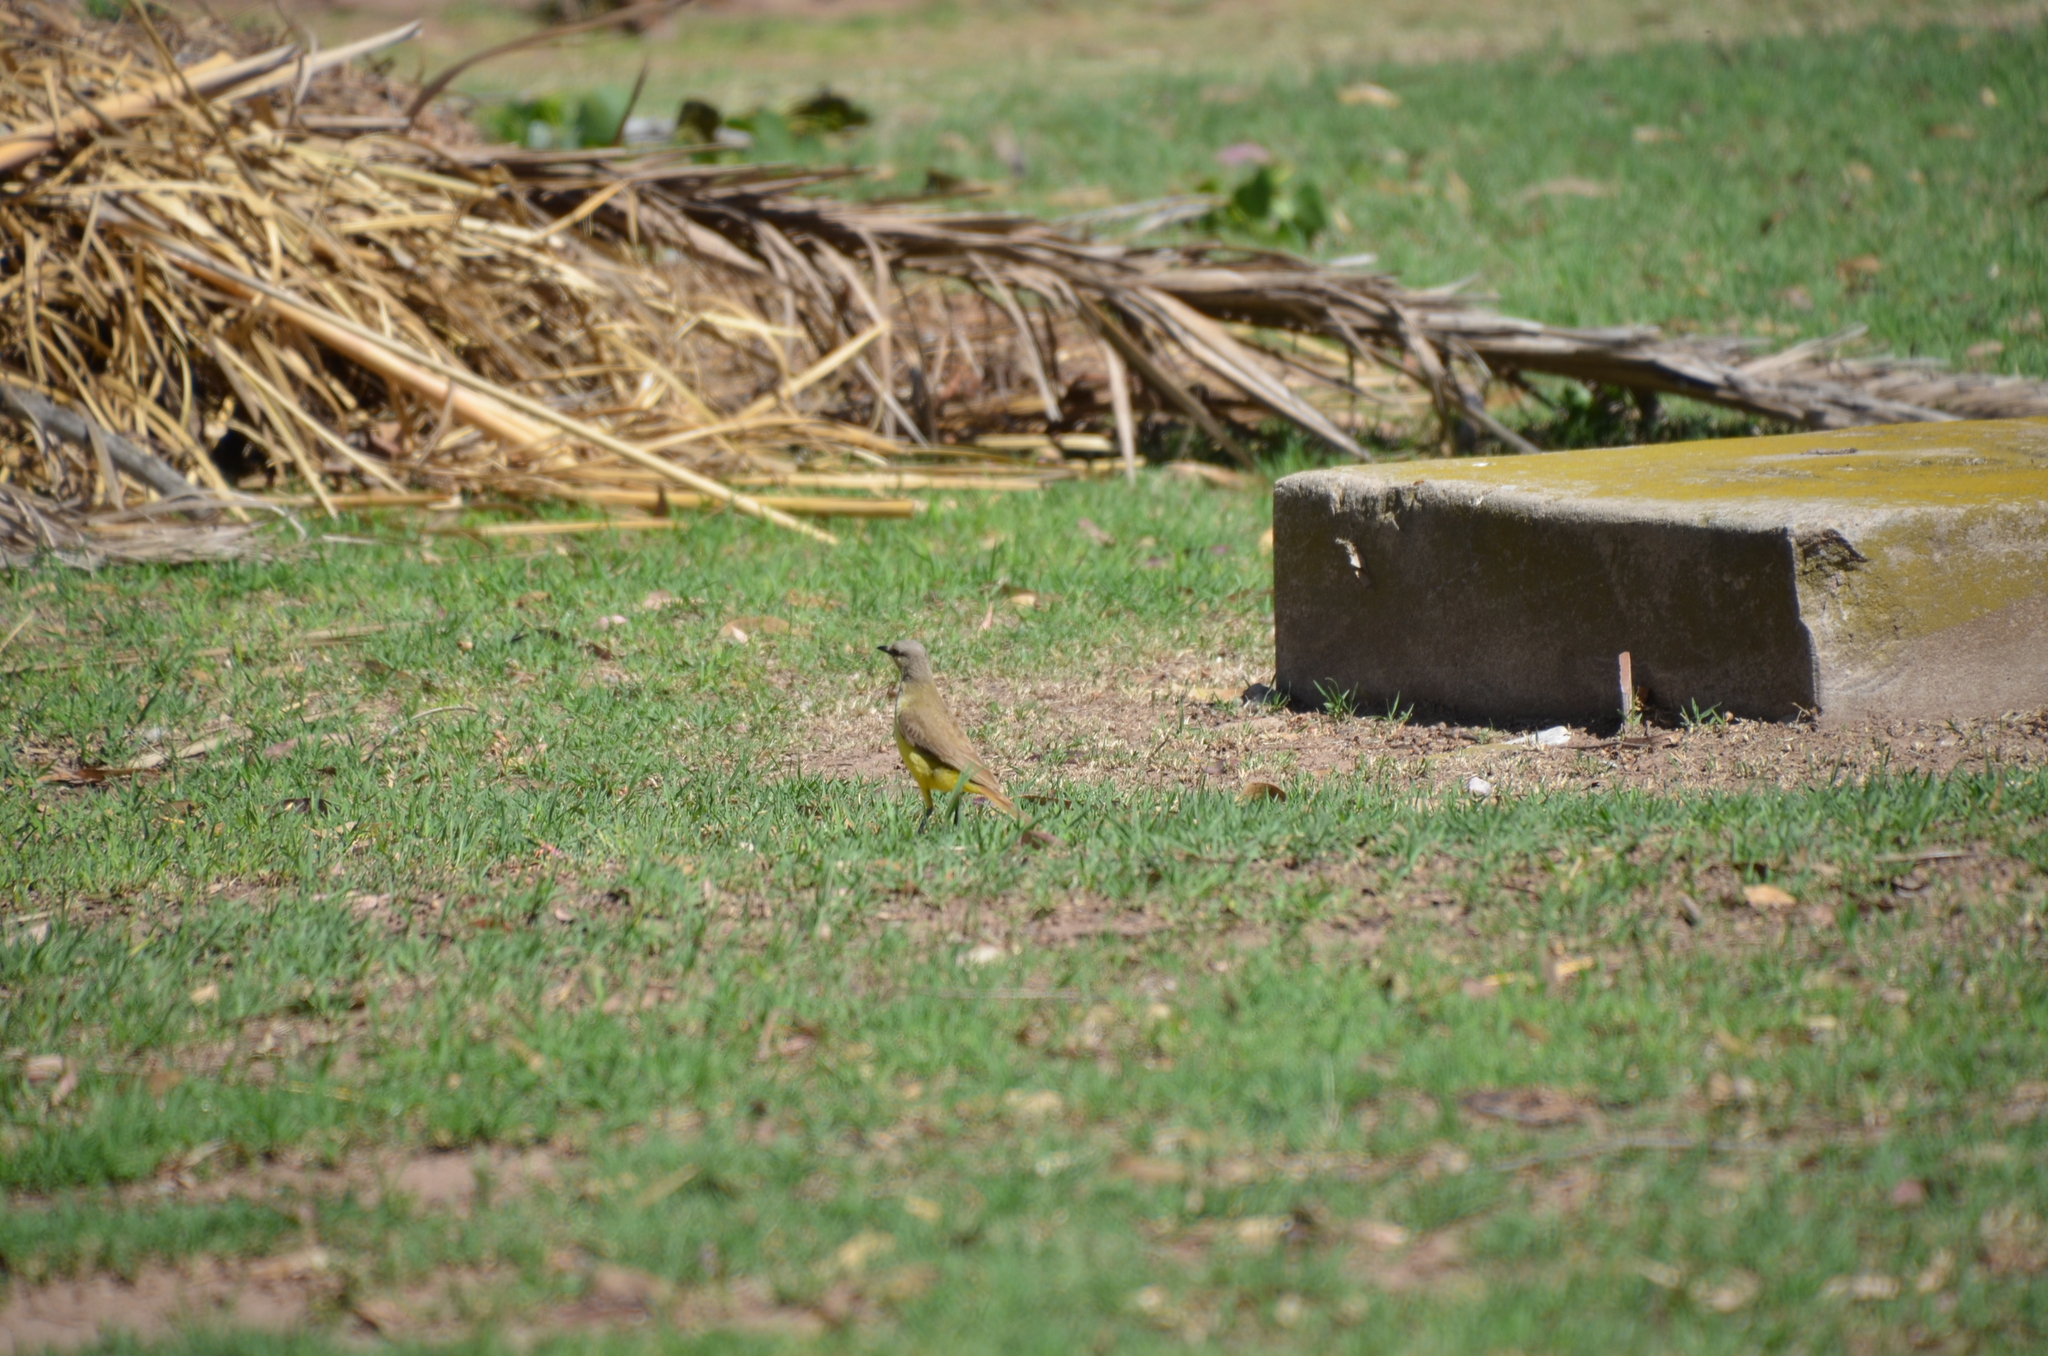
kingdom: Animalia
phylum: Chordata
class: Aves
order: Passeriformes
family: Tyrannidae
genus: Machetornis
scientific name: Machetornis rixosa
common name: Cattle tyrant
